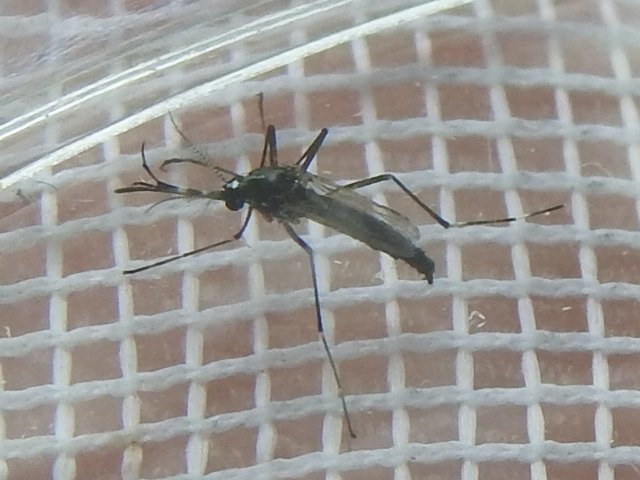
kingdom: Animalia
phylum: Arthropoda
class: Insecta
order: Diptera
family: Culicidae
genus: Aedes
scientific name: Aedes albopictus
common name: Tiger mosquito
